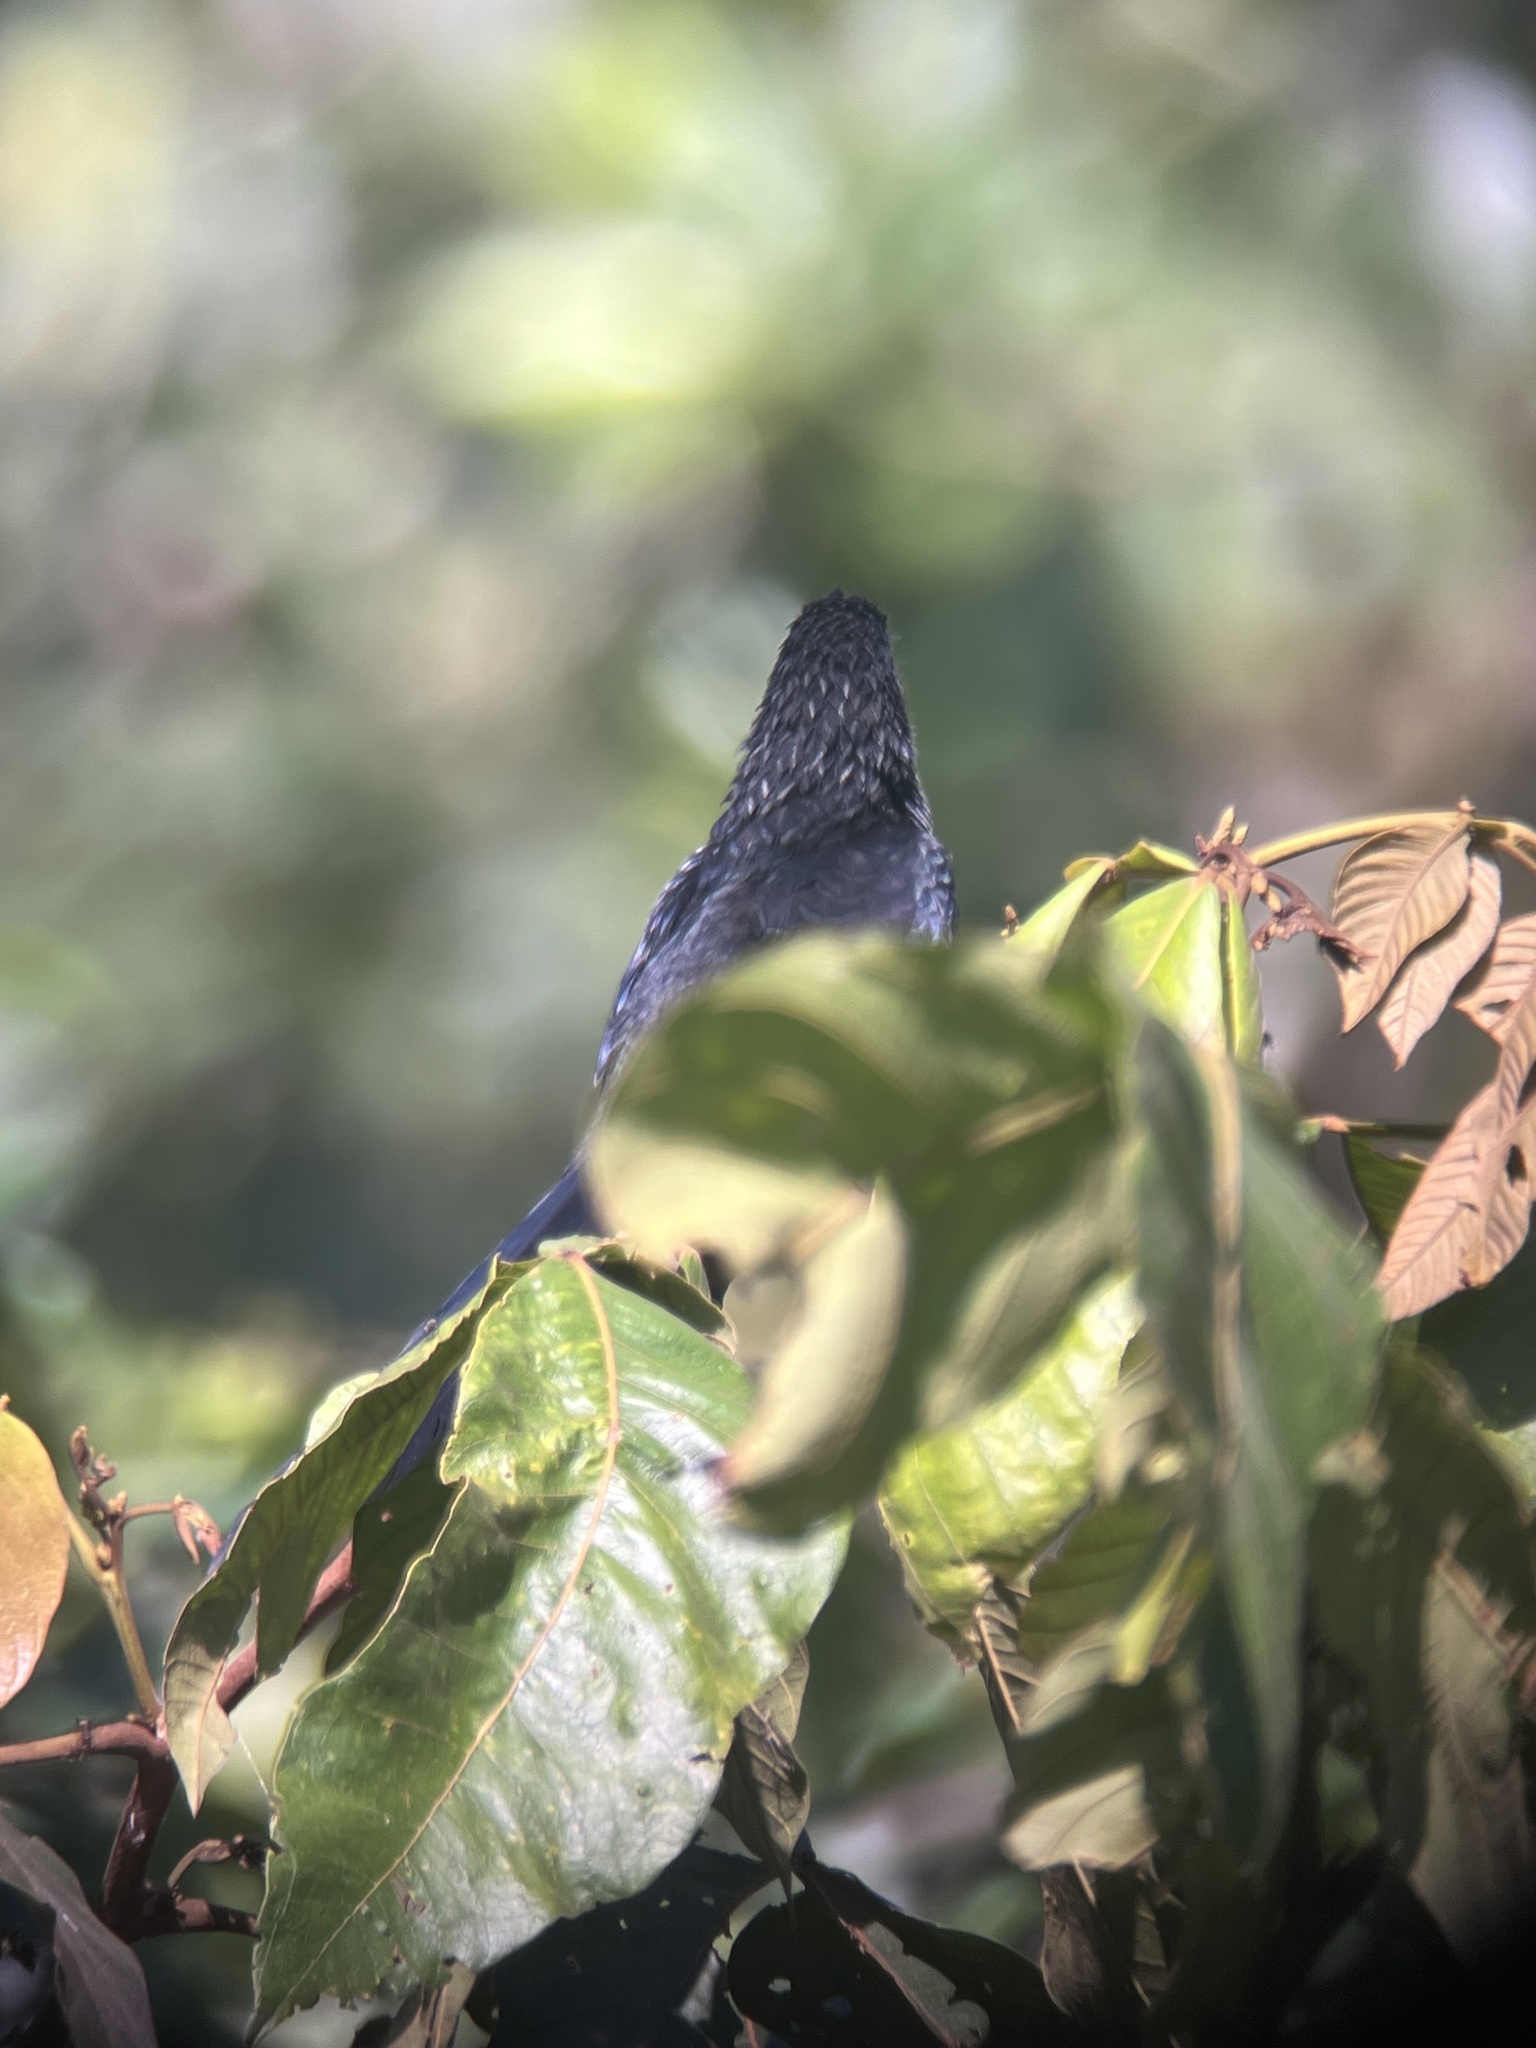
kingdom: Animalia
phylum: Chordata
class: Aves
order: Cuculiformes
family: Cuculidae
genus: Crotophaga
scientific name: Crotophaga sulcirostris
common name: Groove-billed ani
